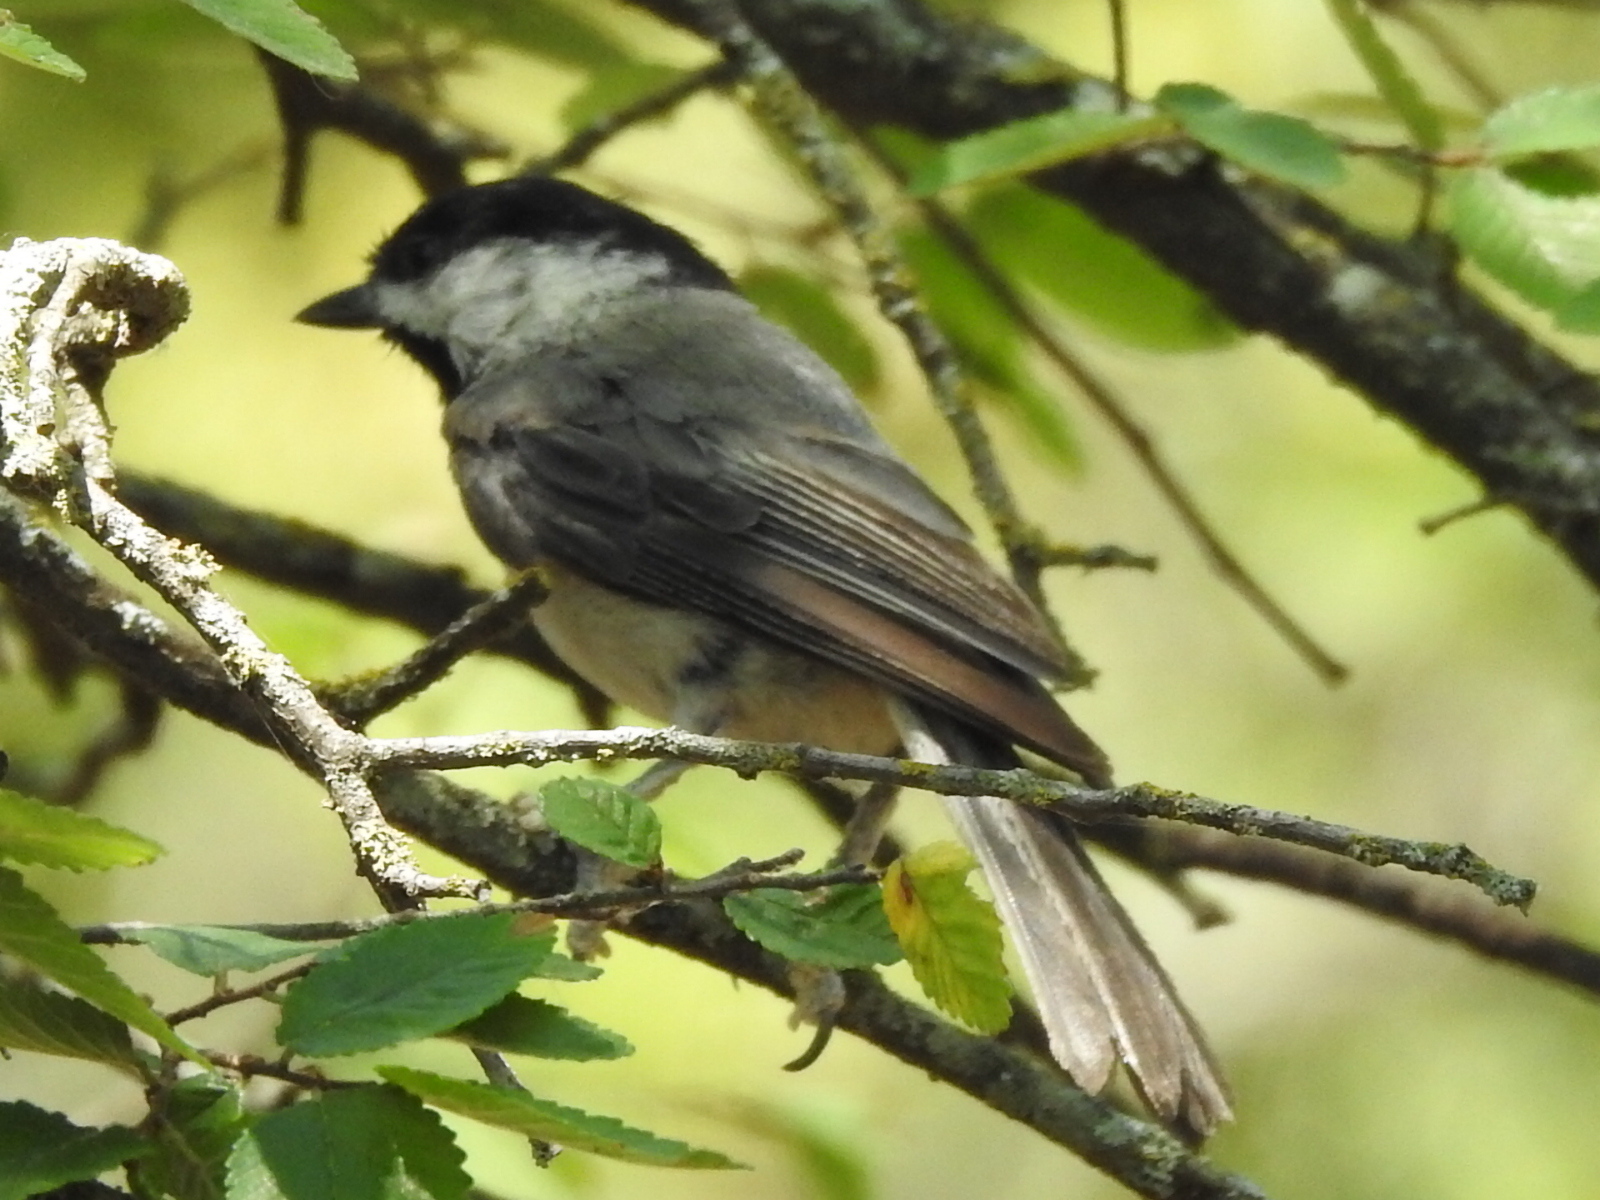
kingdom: Animalia
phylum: Chordata
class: Aves
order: Passeriformes
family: Paridae
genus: Poecile
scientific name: Poecile carolinensis
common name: Carolina chickadee
